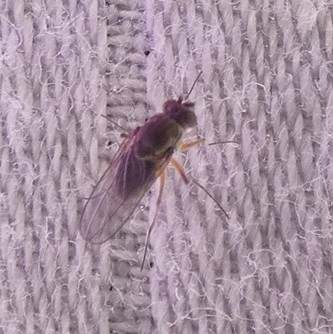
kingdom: Animalia
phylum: Arthropoda
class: Insecta
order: Diptera
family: Ephydridae
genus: Brachydeutera
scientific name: Brachydeutera longipes
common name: Shore fly
